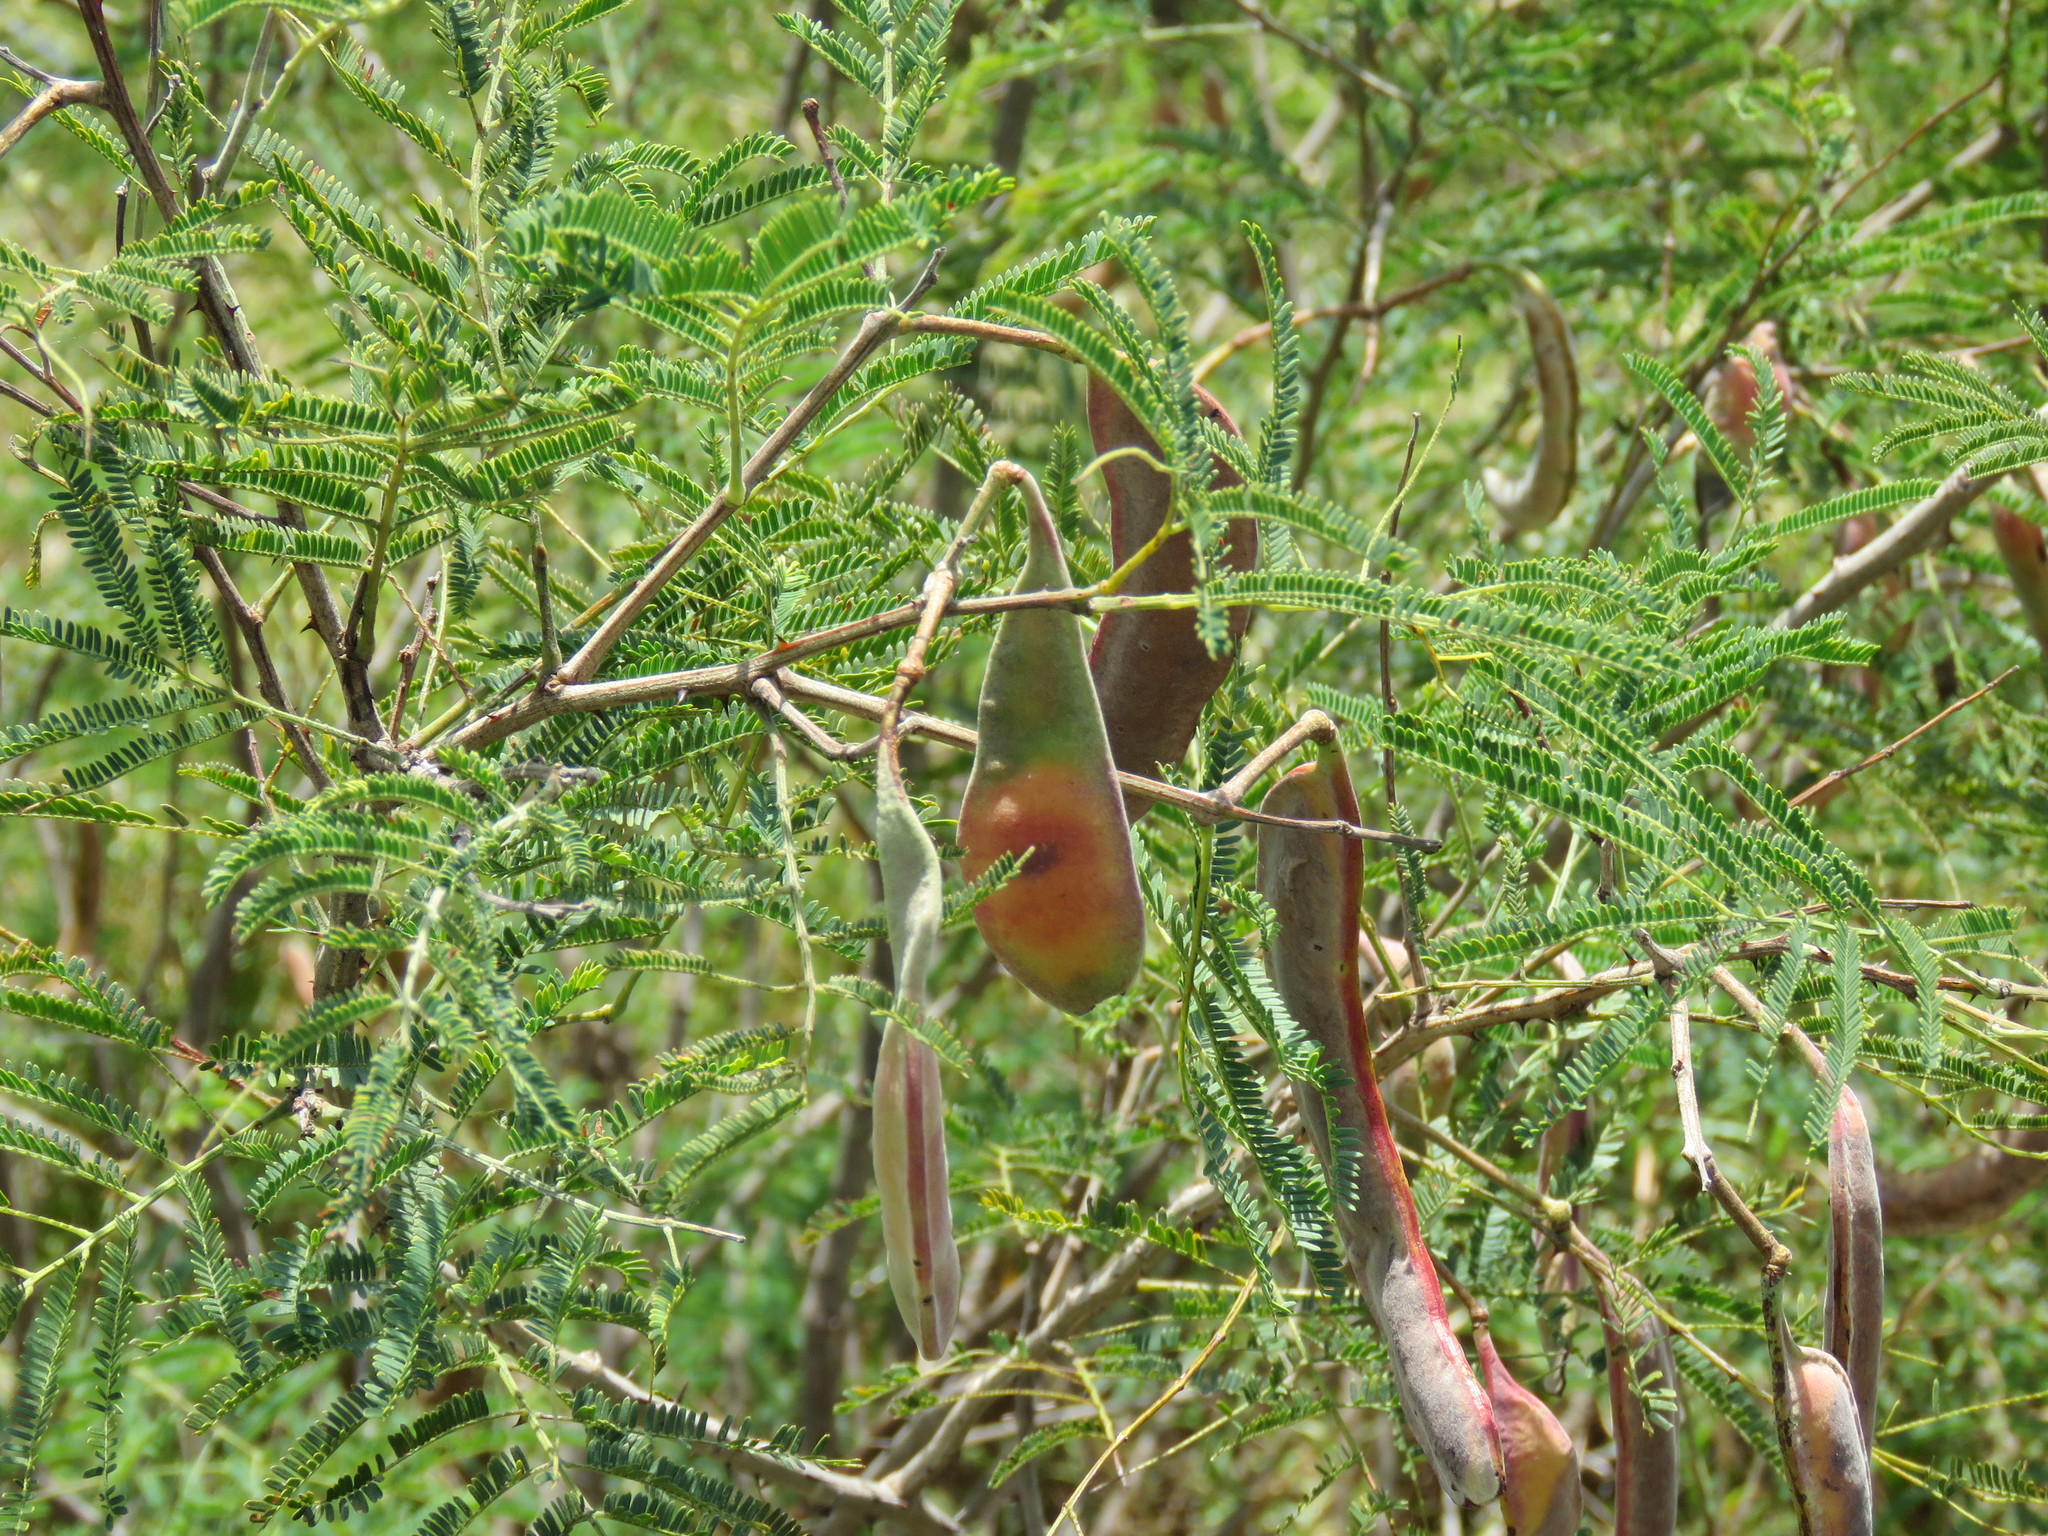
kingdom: Plantae
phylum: Tracheophyta
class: Magnoliopsida
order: Fabales
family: Fabaceae
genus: Senegalia
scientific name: Senegalia berlandieri
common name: Berlandier acacia
